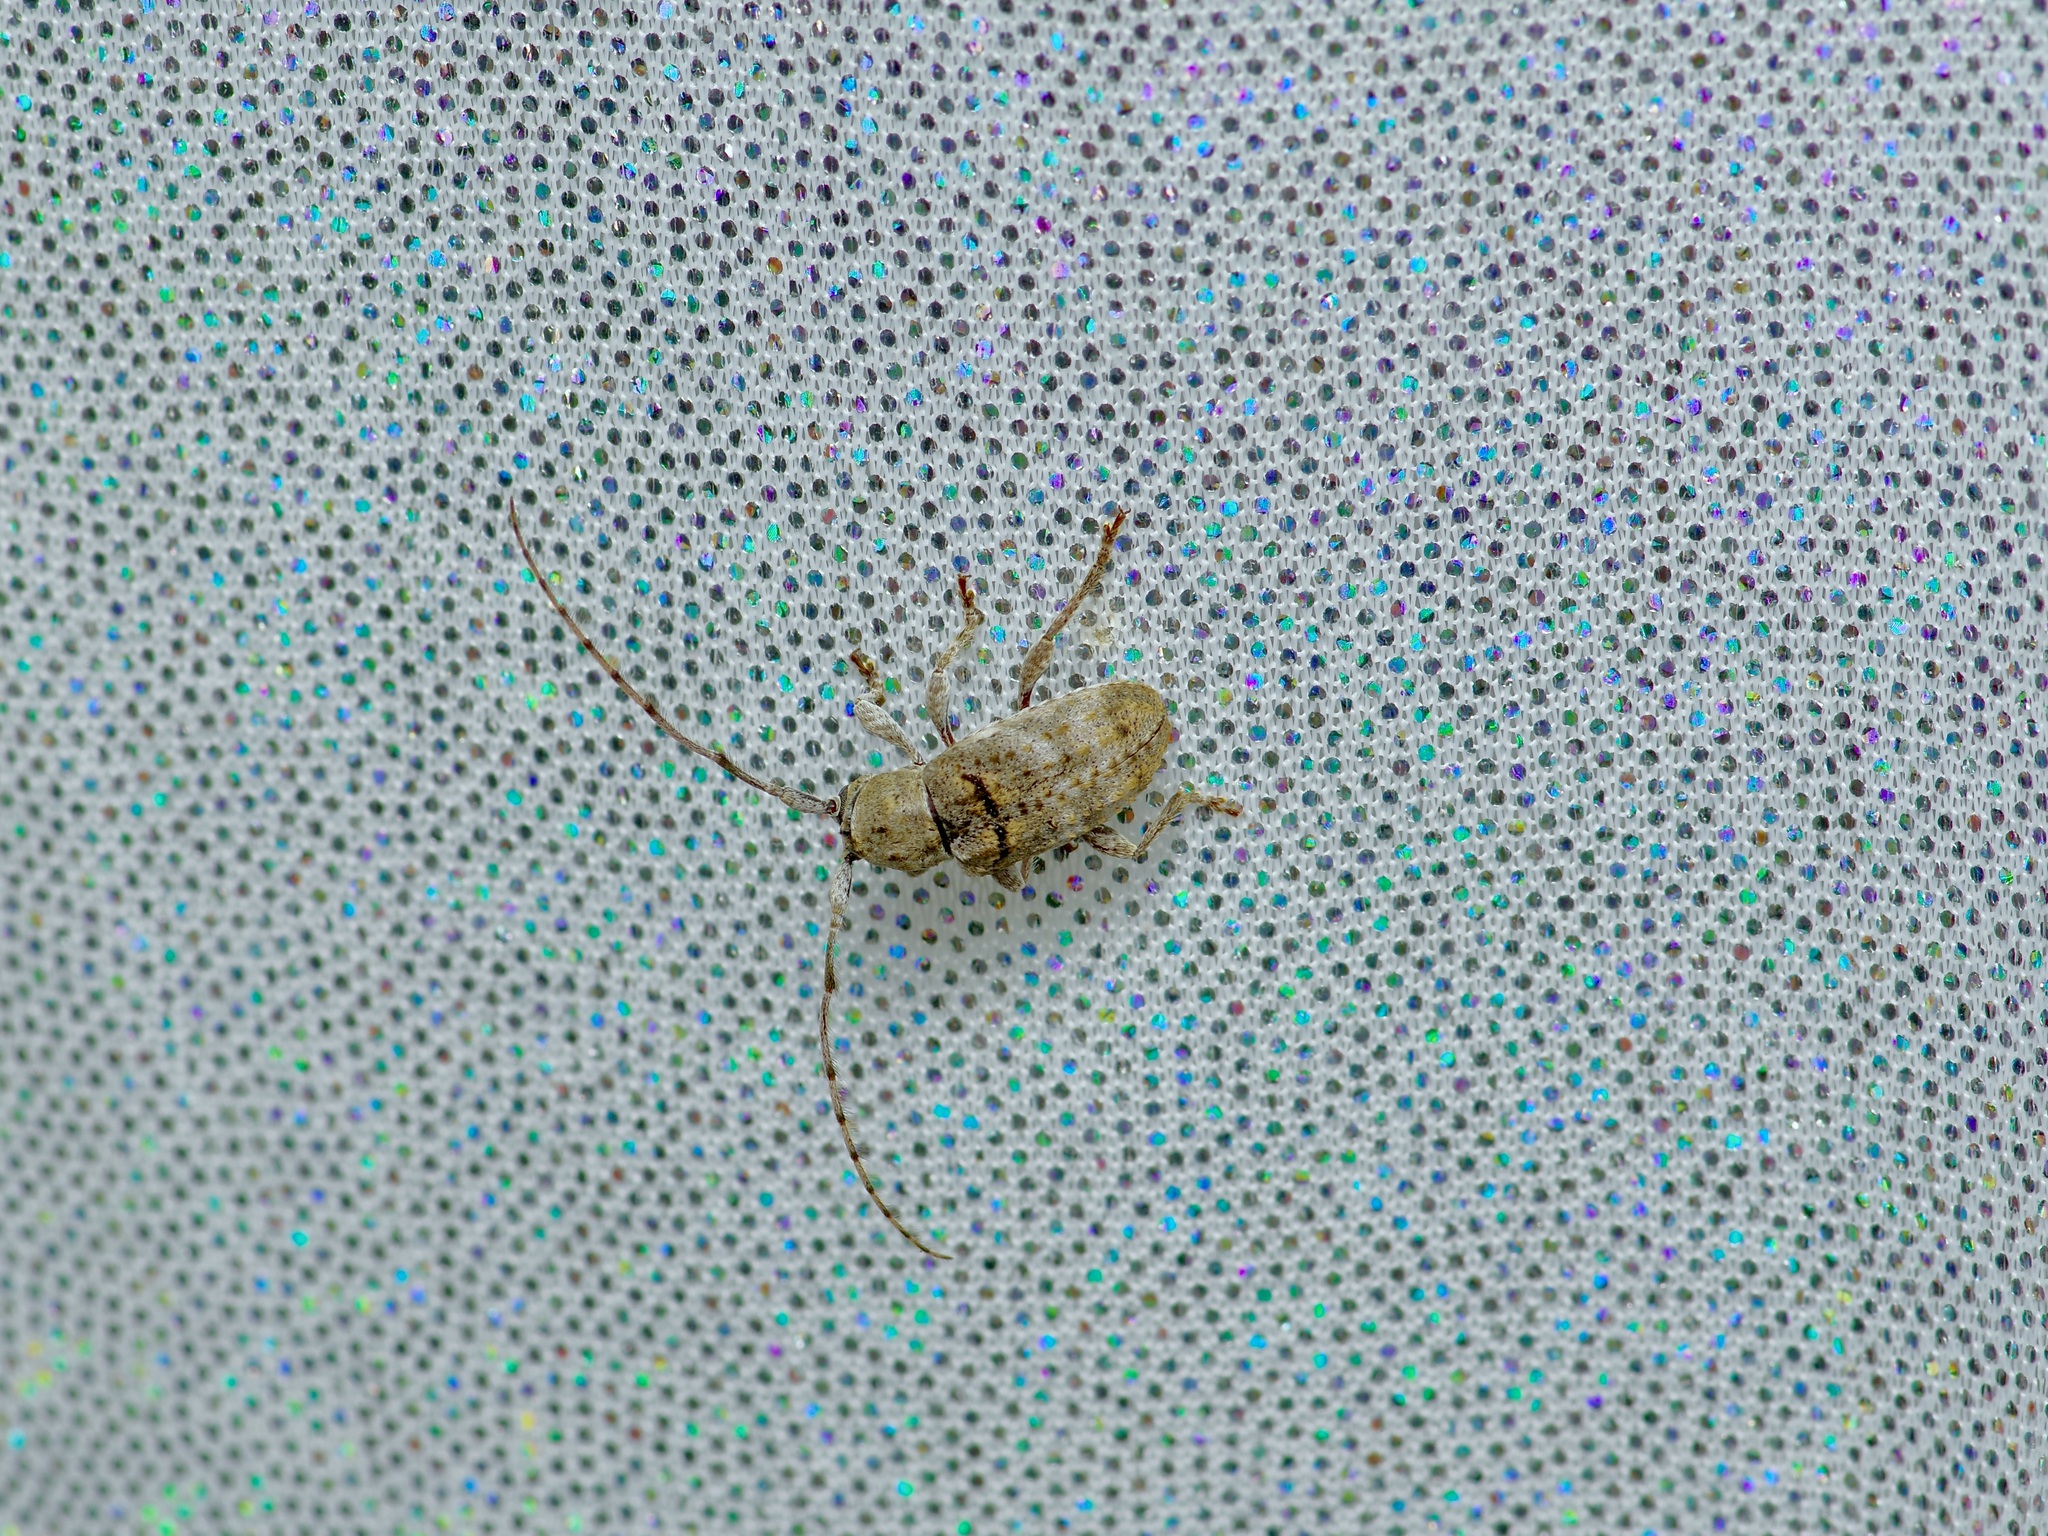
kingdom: Animalia
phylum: Arthropoda
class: Insecta
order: Coleoptera
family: Cerambycidae
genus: Ecyrus
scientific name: Ecyrus dasycerus
